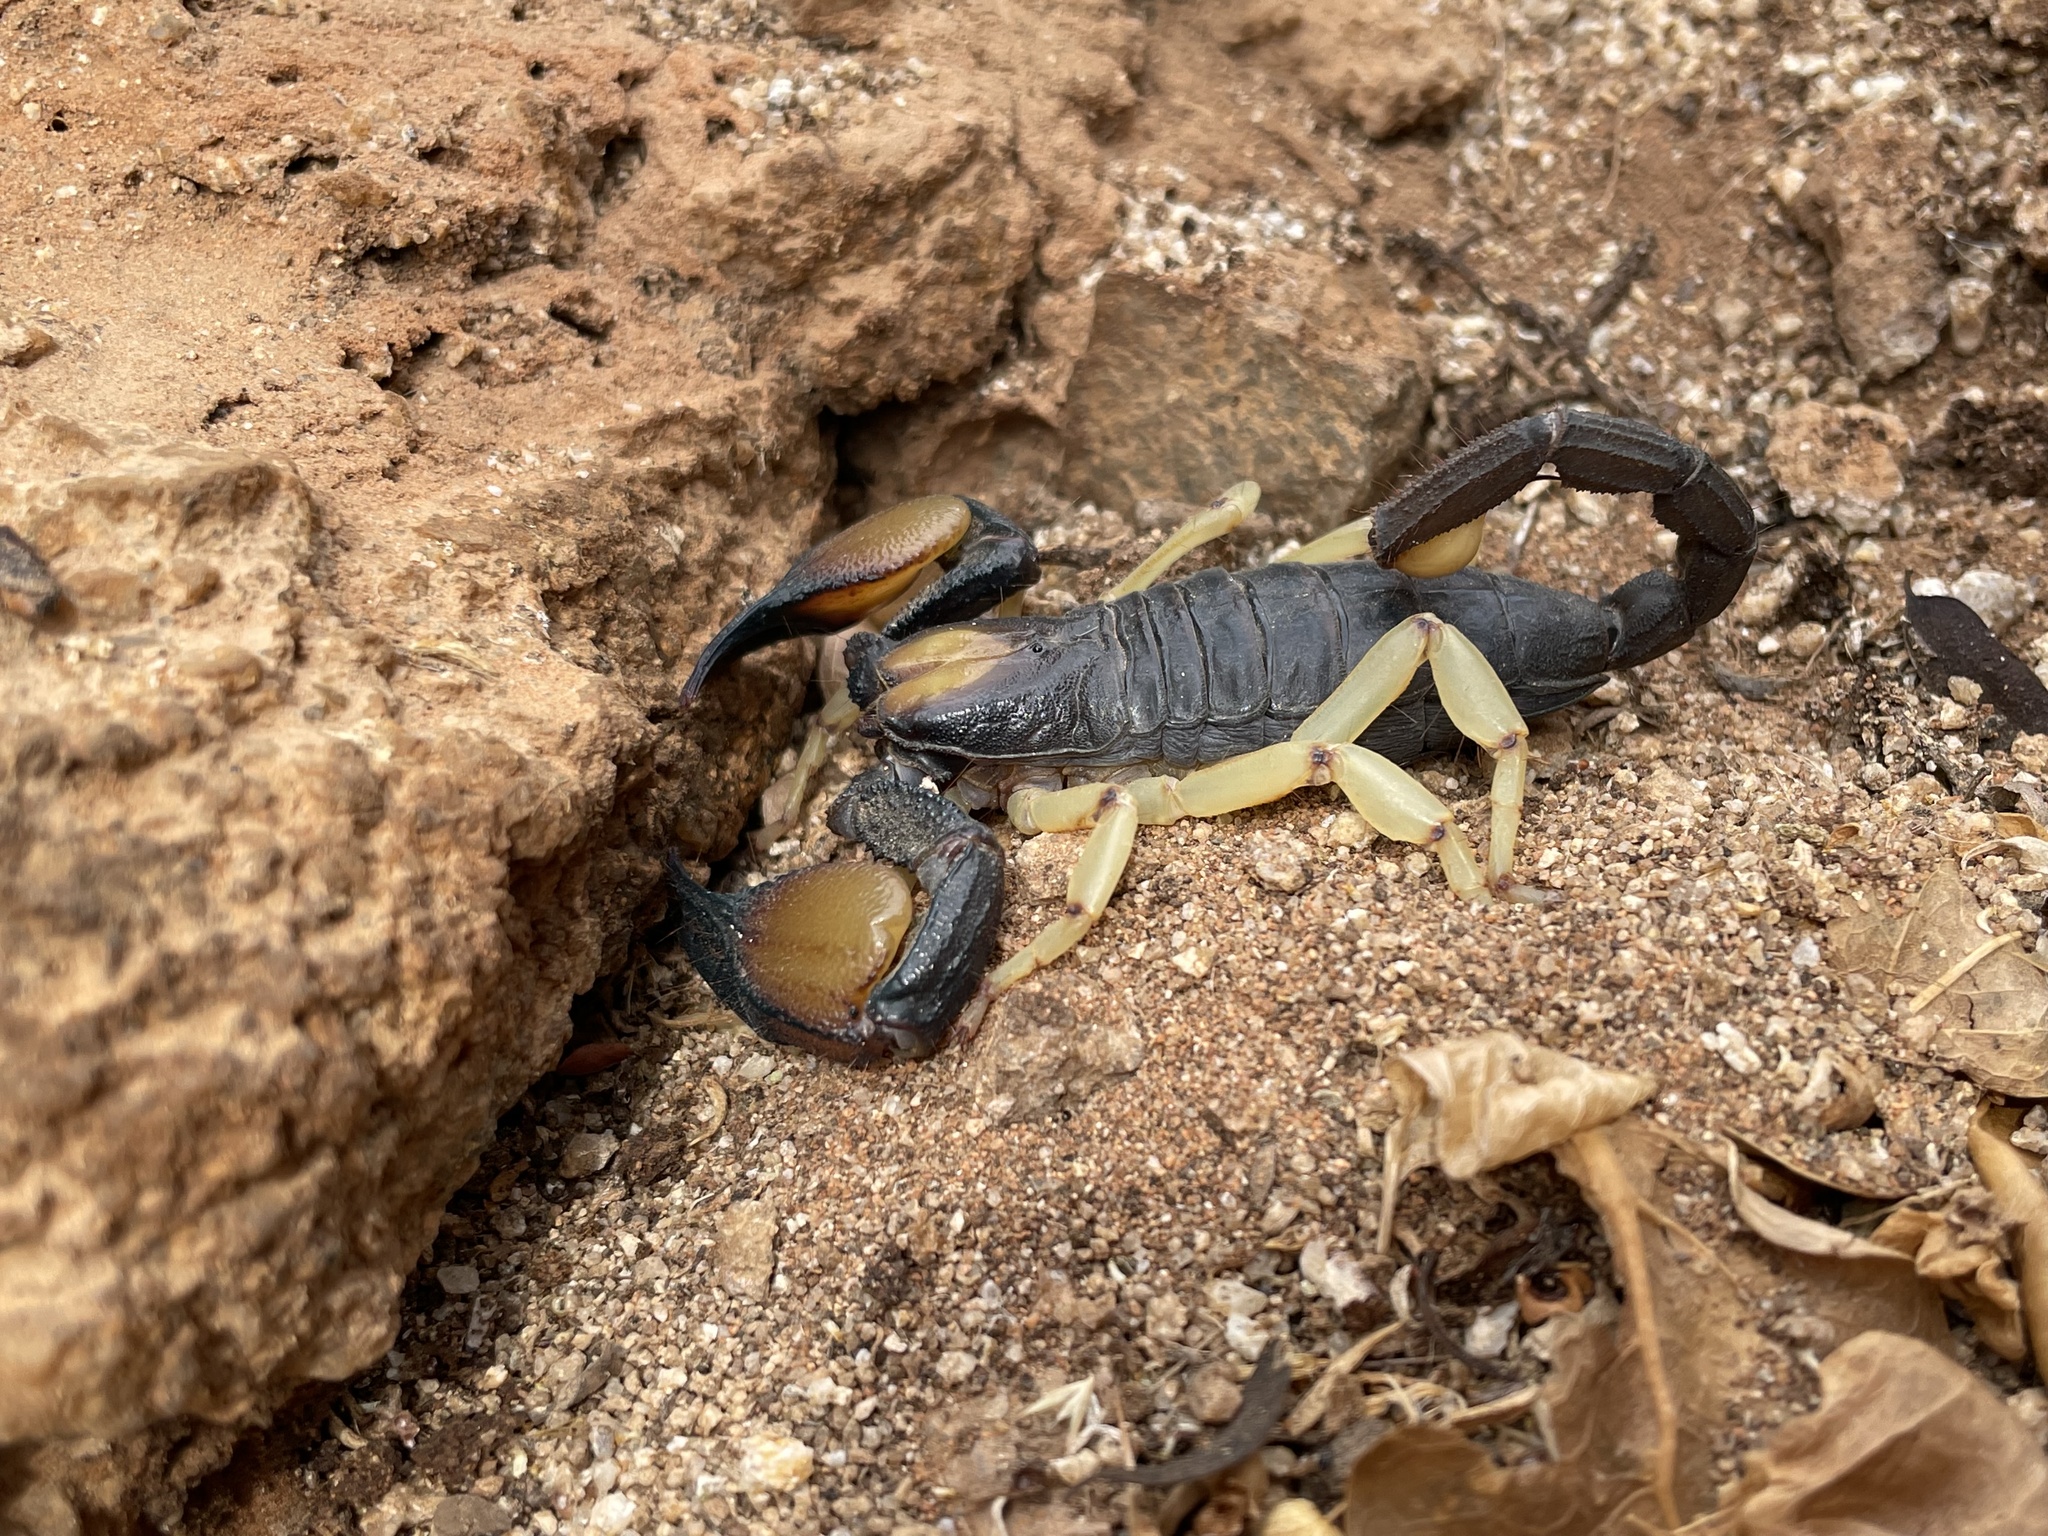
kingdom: Animalia
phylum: Arthropoda
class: Arachnida
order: Scorpiones
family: Scorpionidae
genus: Opistophthalmus
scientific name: Opistophthalmus peringueyi
